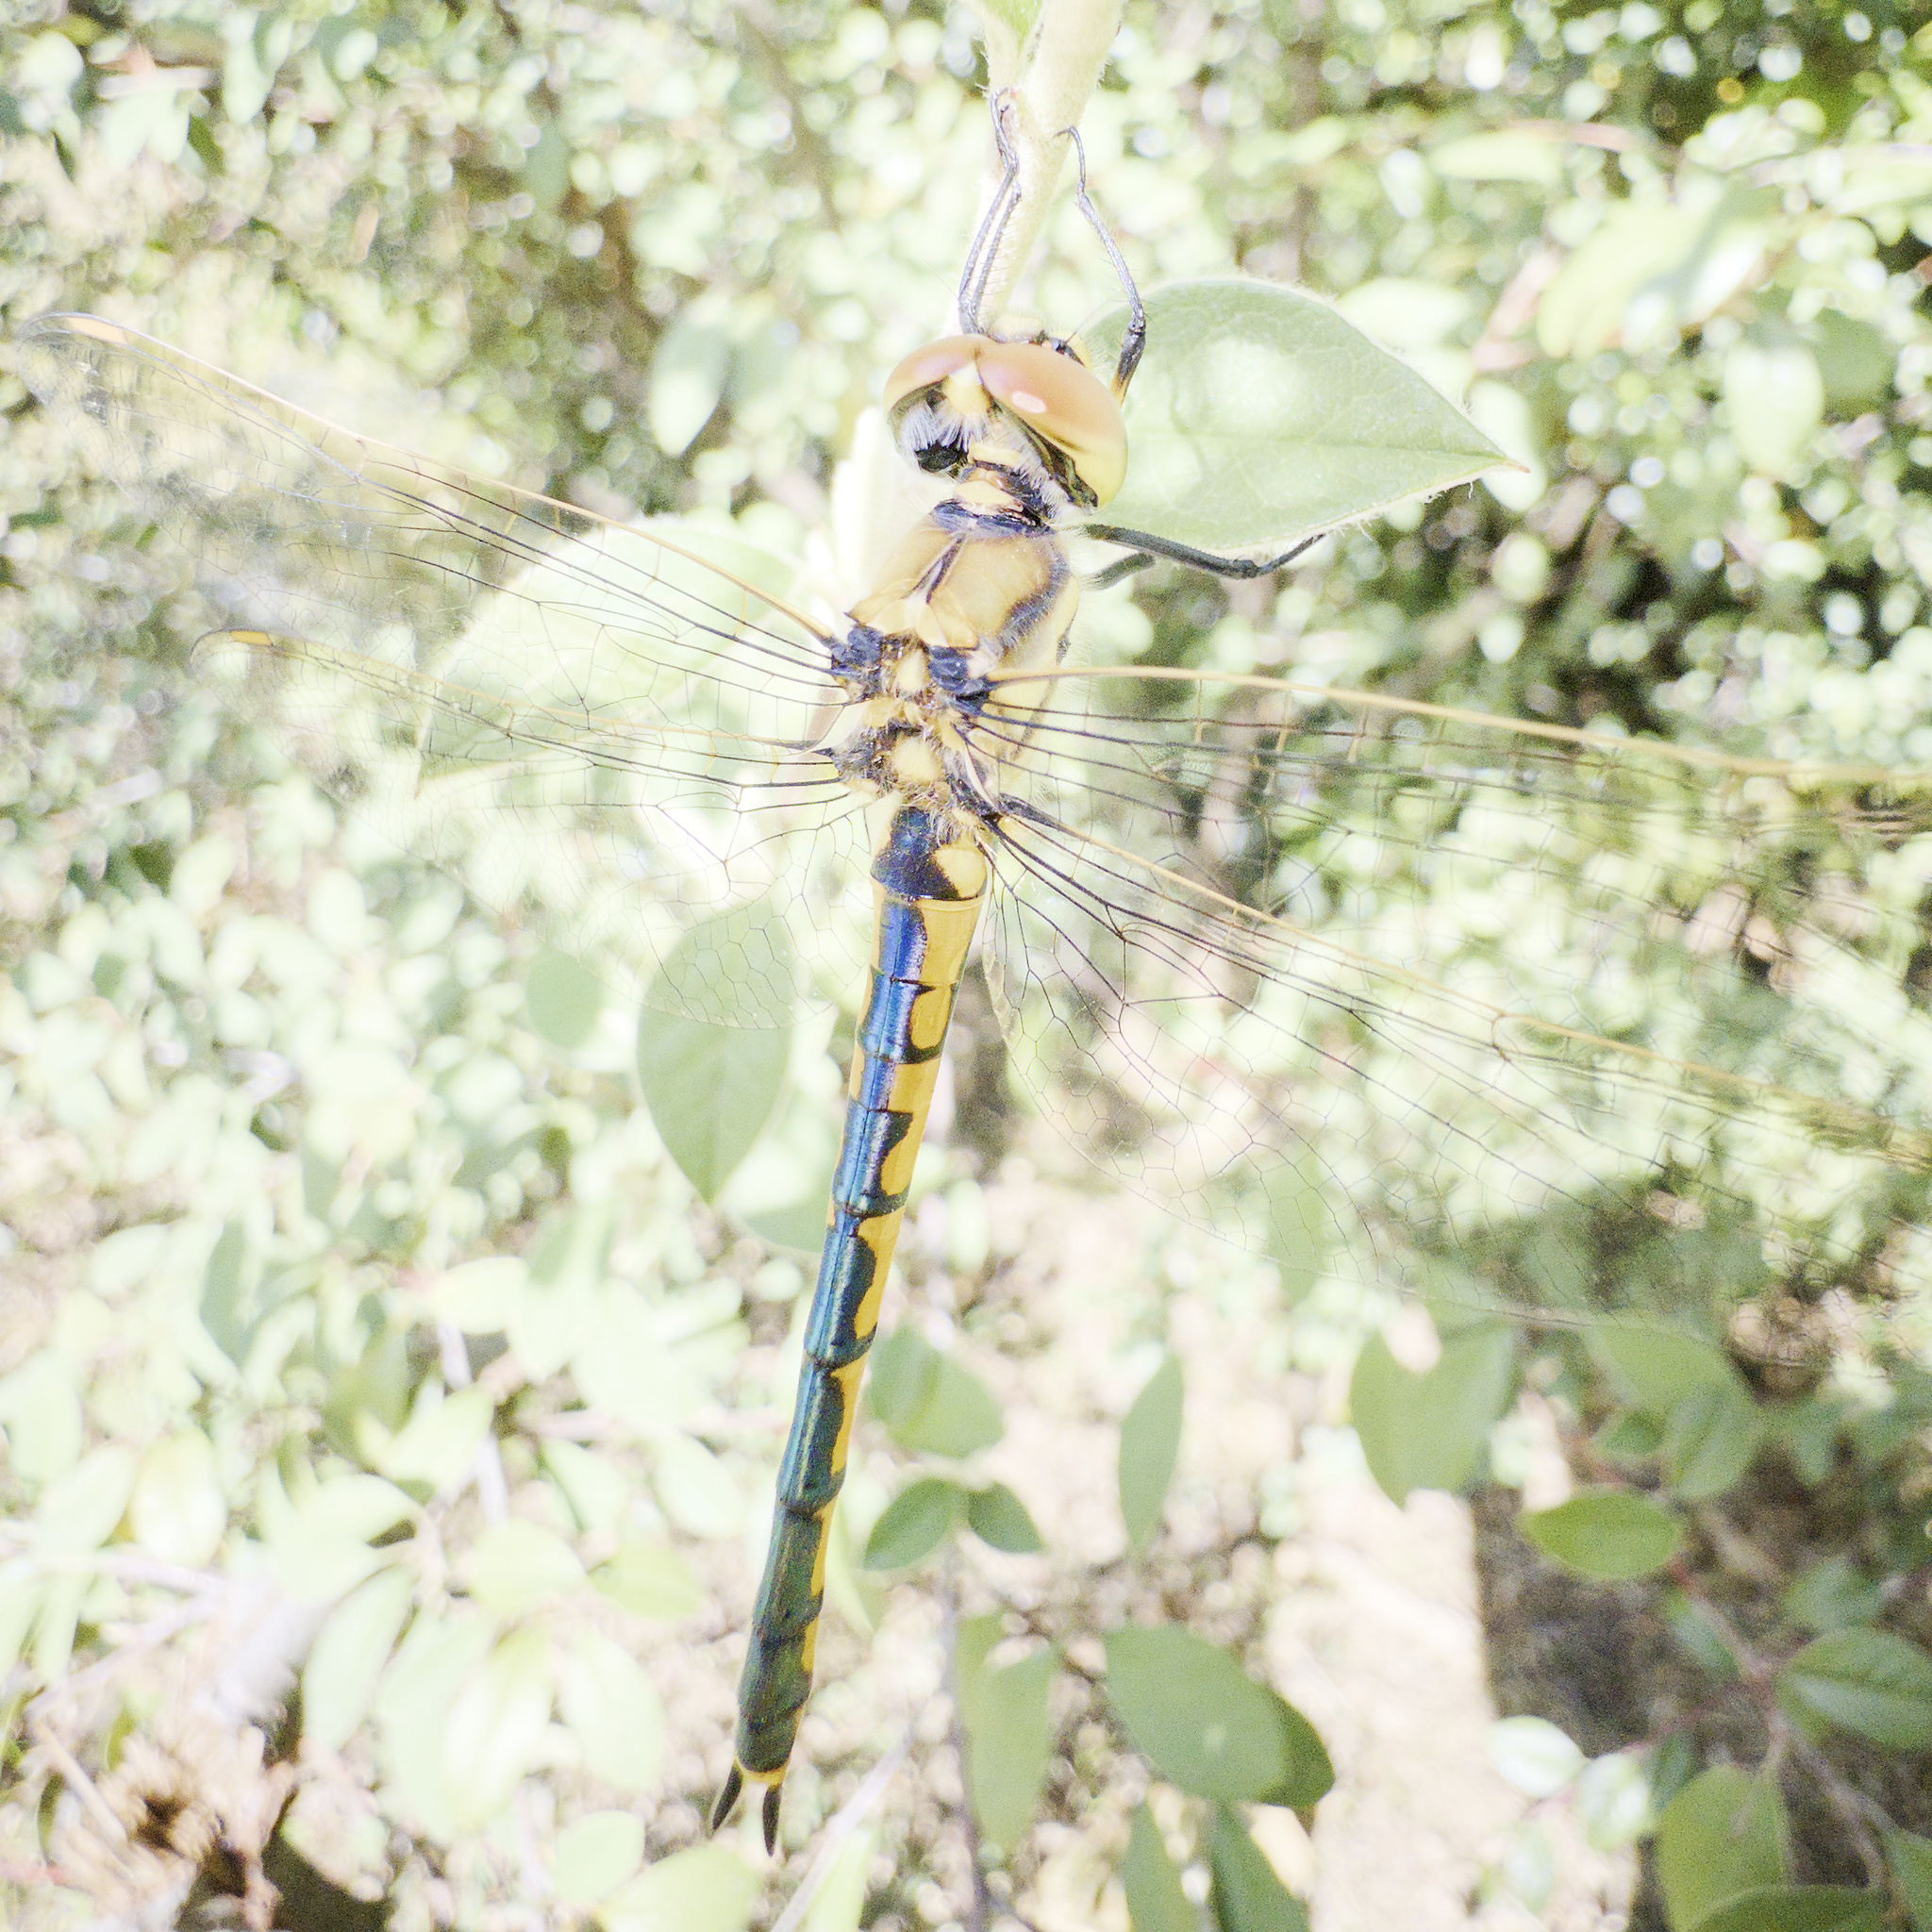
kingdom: Animalia
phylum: Arthropoda
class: Insecta
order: Odonata
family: Corduliidae
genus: Hemicordulia
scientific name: Hemicordulia tau
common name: Tau emerald
